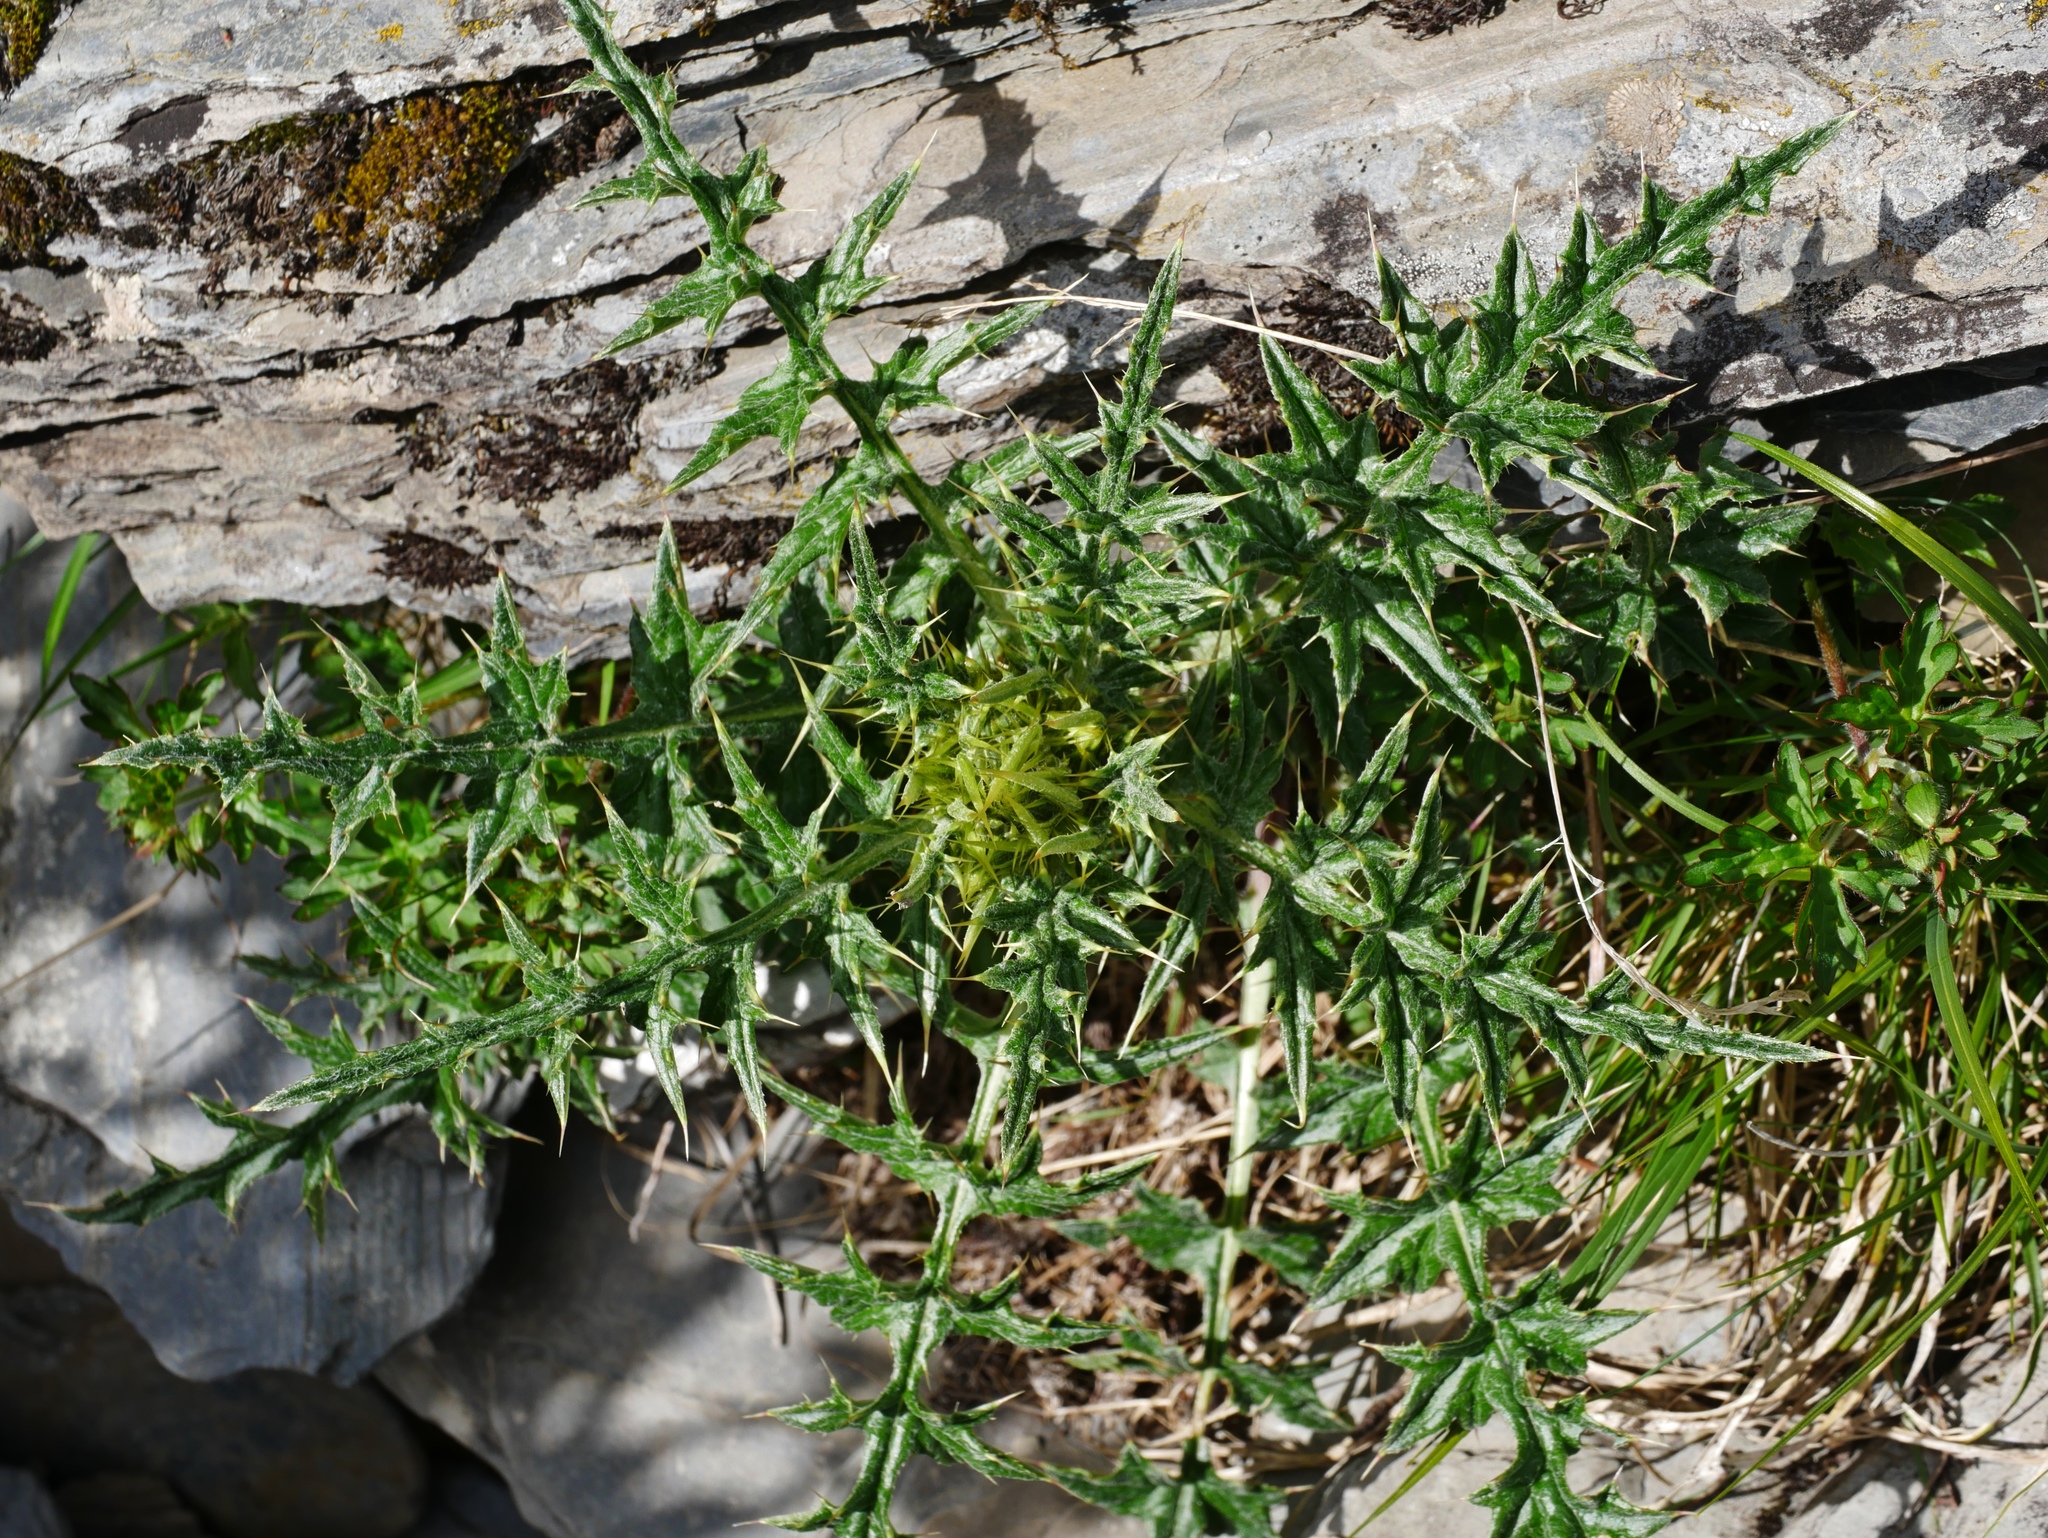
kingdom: Plantae
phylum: Tracheophyta
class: Magnoliopsida
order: Asterales
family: Asteraceae
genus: Cirsium
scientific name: Cirsium arisanense
